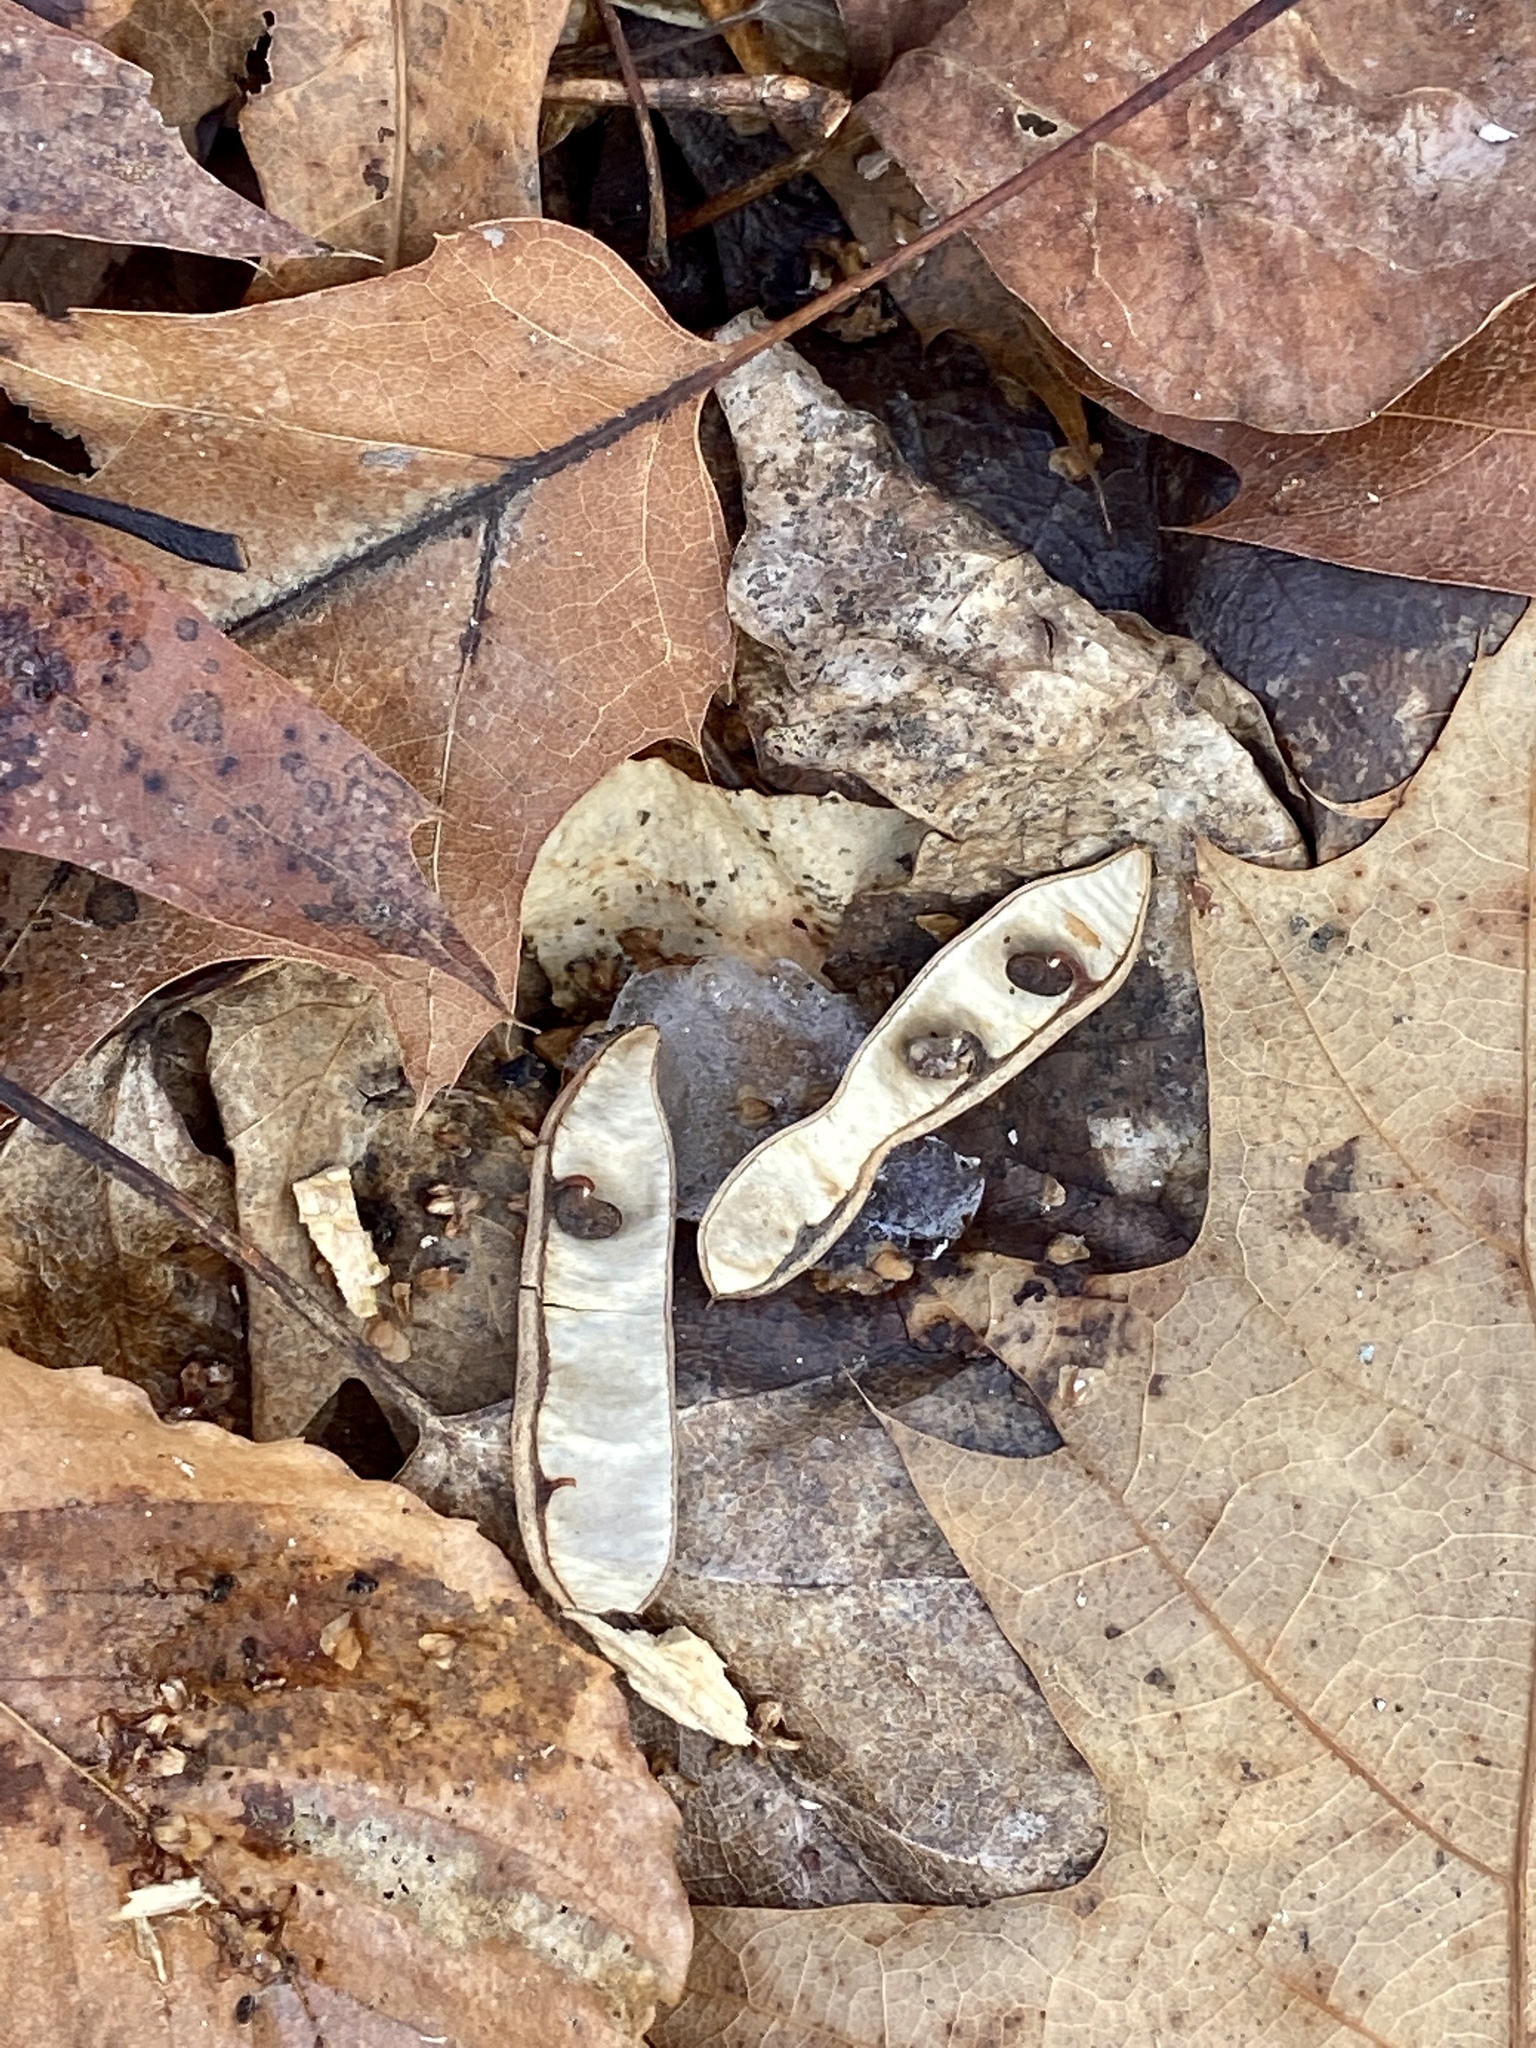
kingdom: Plantae
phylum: Tracheophyta
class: Magnoliopsida
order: Fabales
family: Fabaceae
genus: Robinia
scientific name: Robinia pseudoacacia
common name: Black locust
